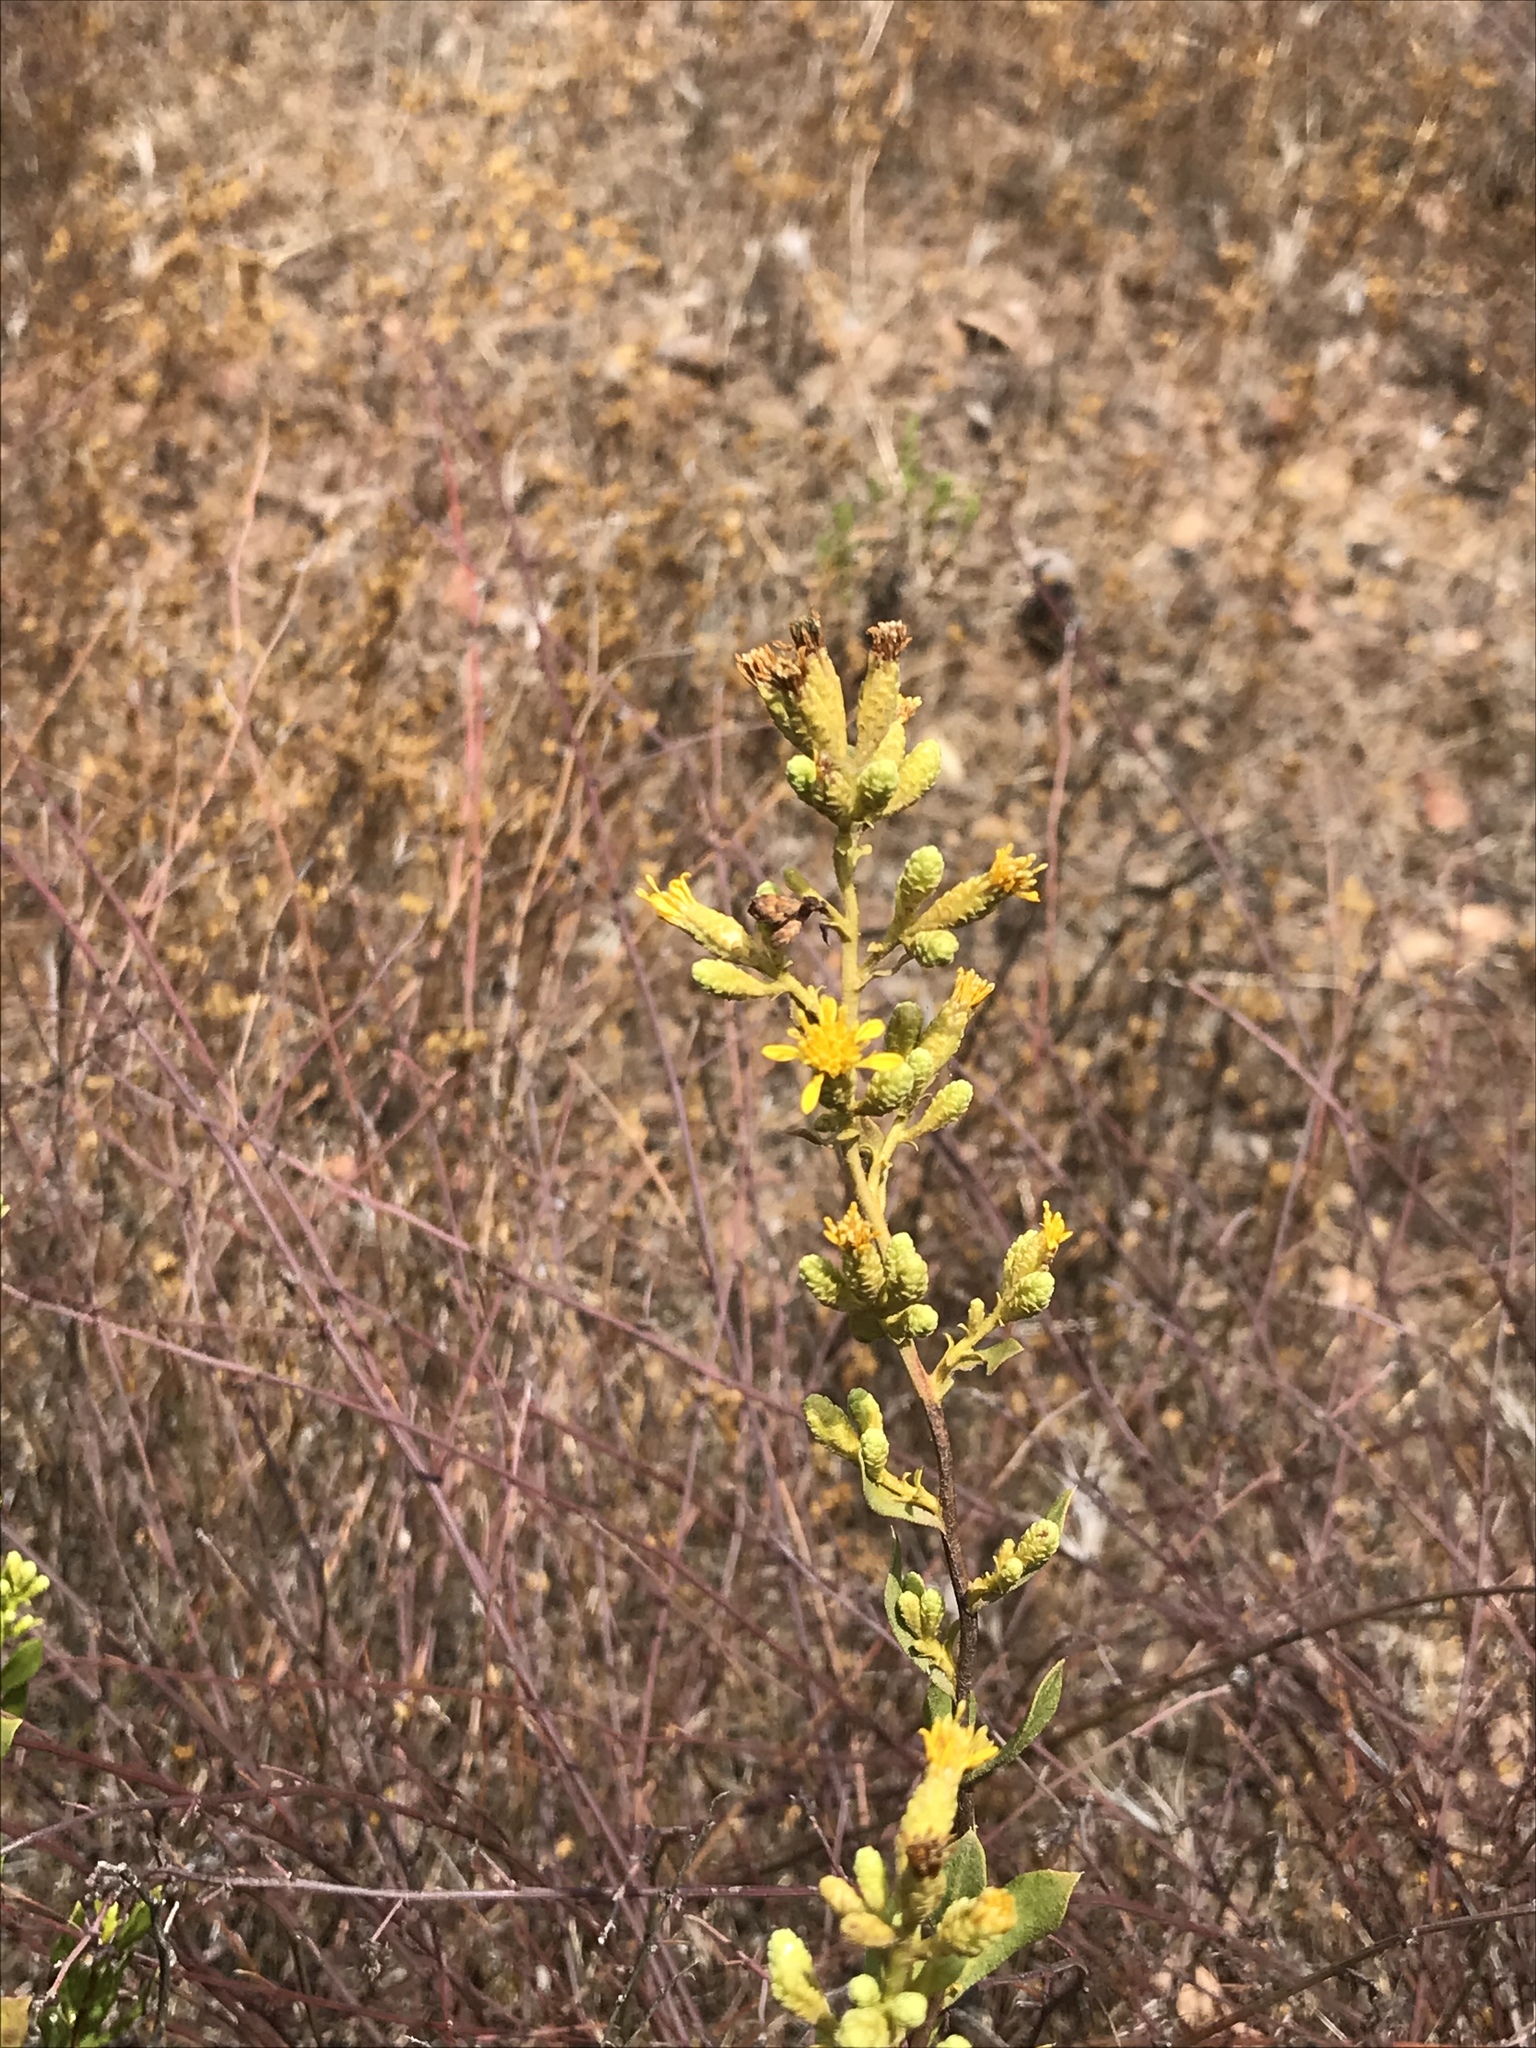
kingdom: Plantae
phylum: Tracheophyta
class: Magnoliopsida
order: Asterales
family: Asteraceae
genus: Hazardia
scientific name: Hazardia orcuttii
